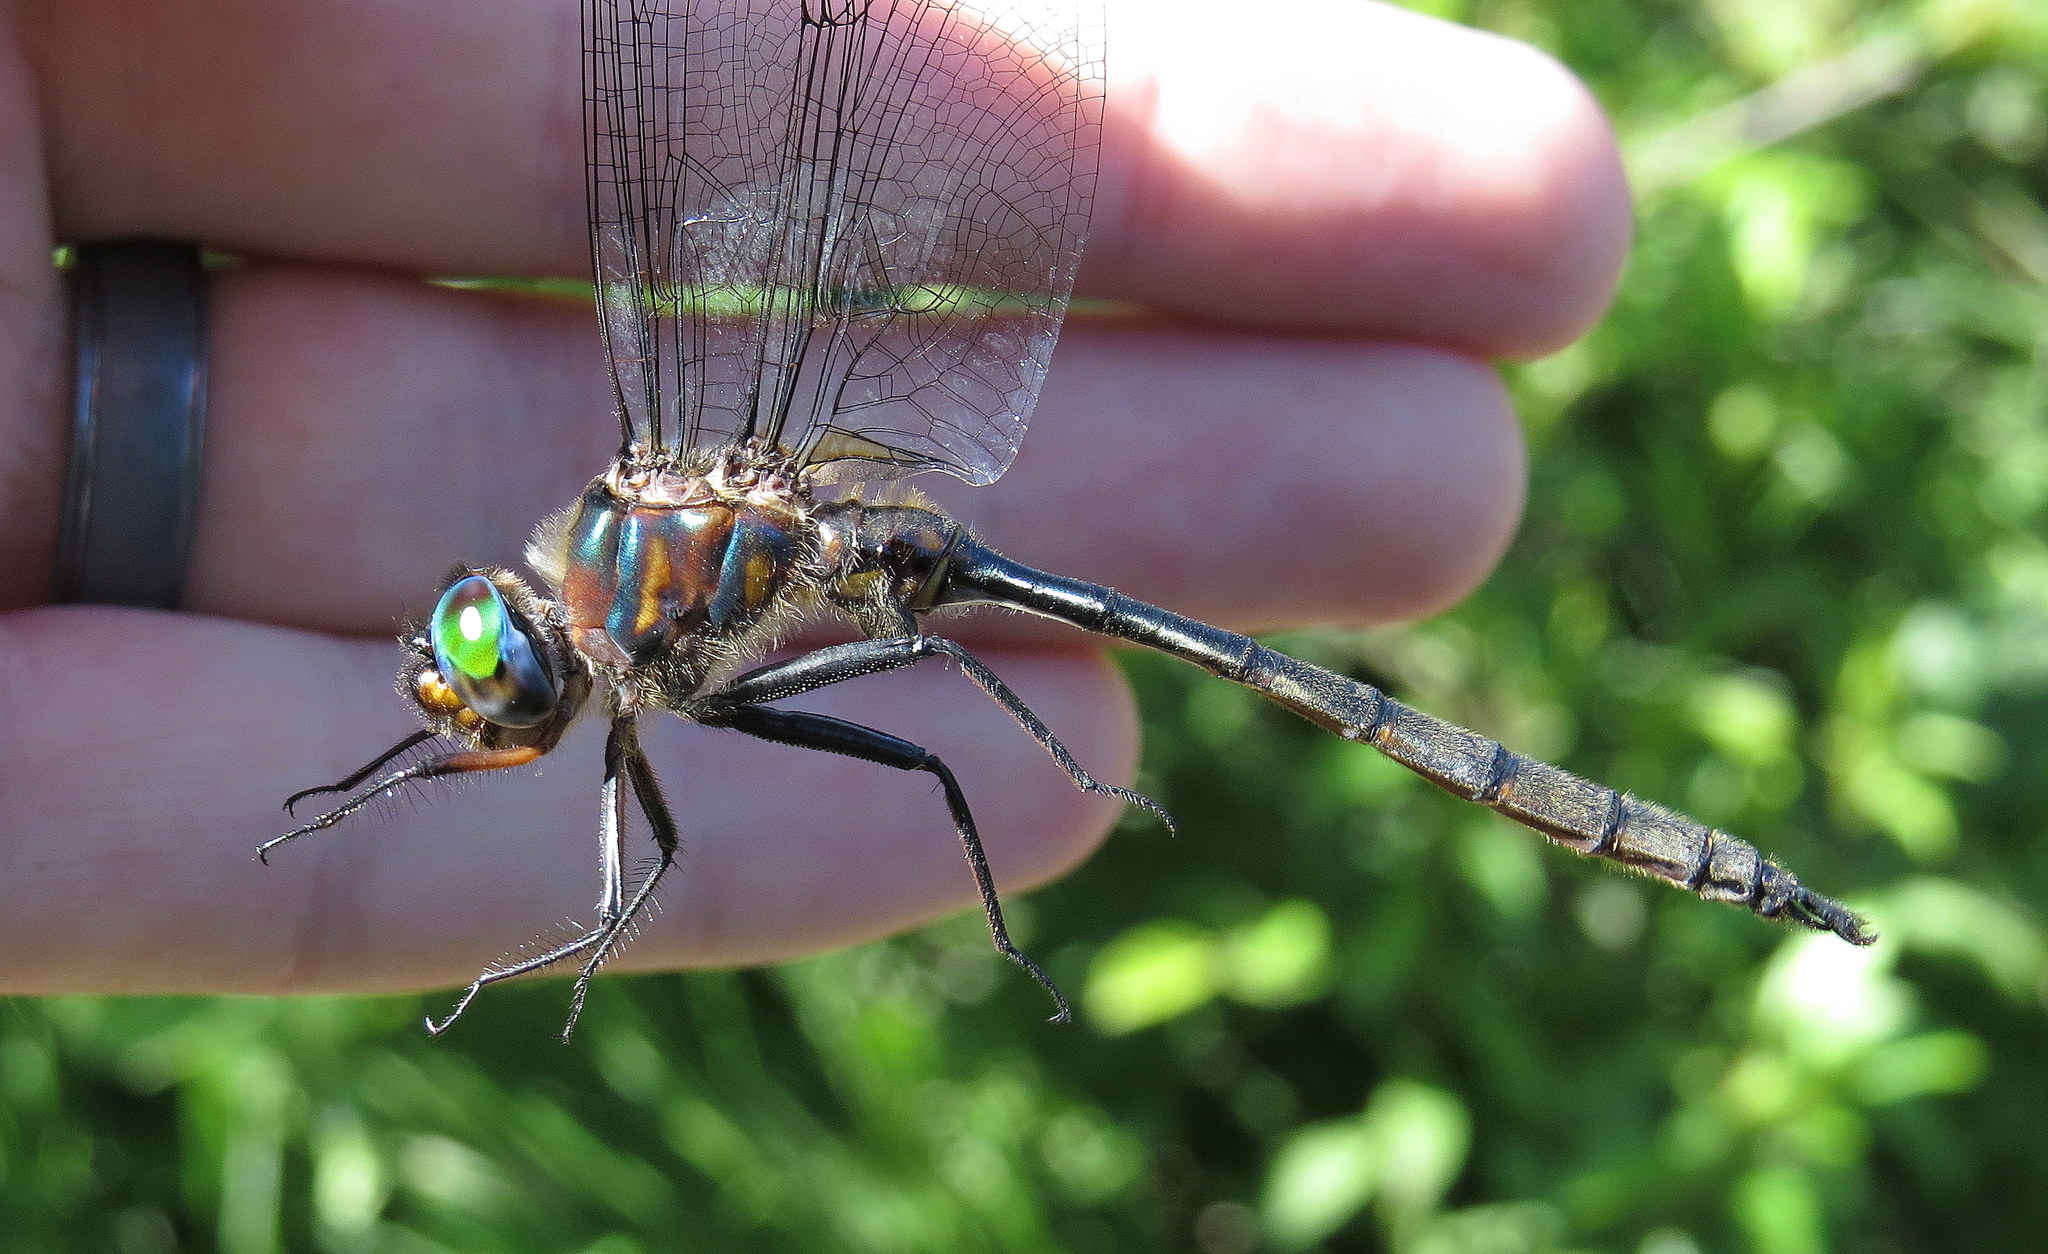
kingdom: Animalia
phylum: Arthropoda
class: Insecta
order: Odonata
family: Corduliidae
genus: Somatochlora
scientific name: Somatochlora williamsoni
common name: Williamson's emerald
